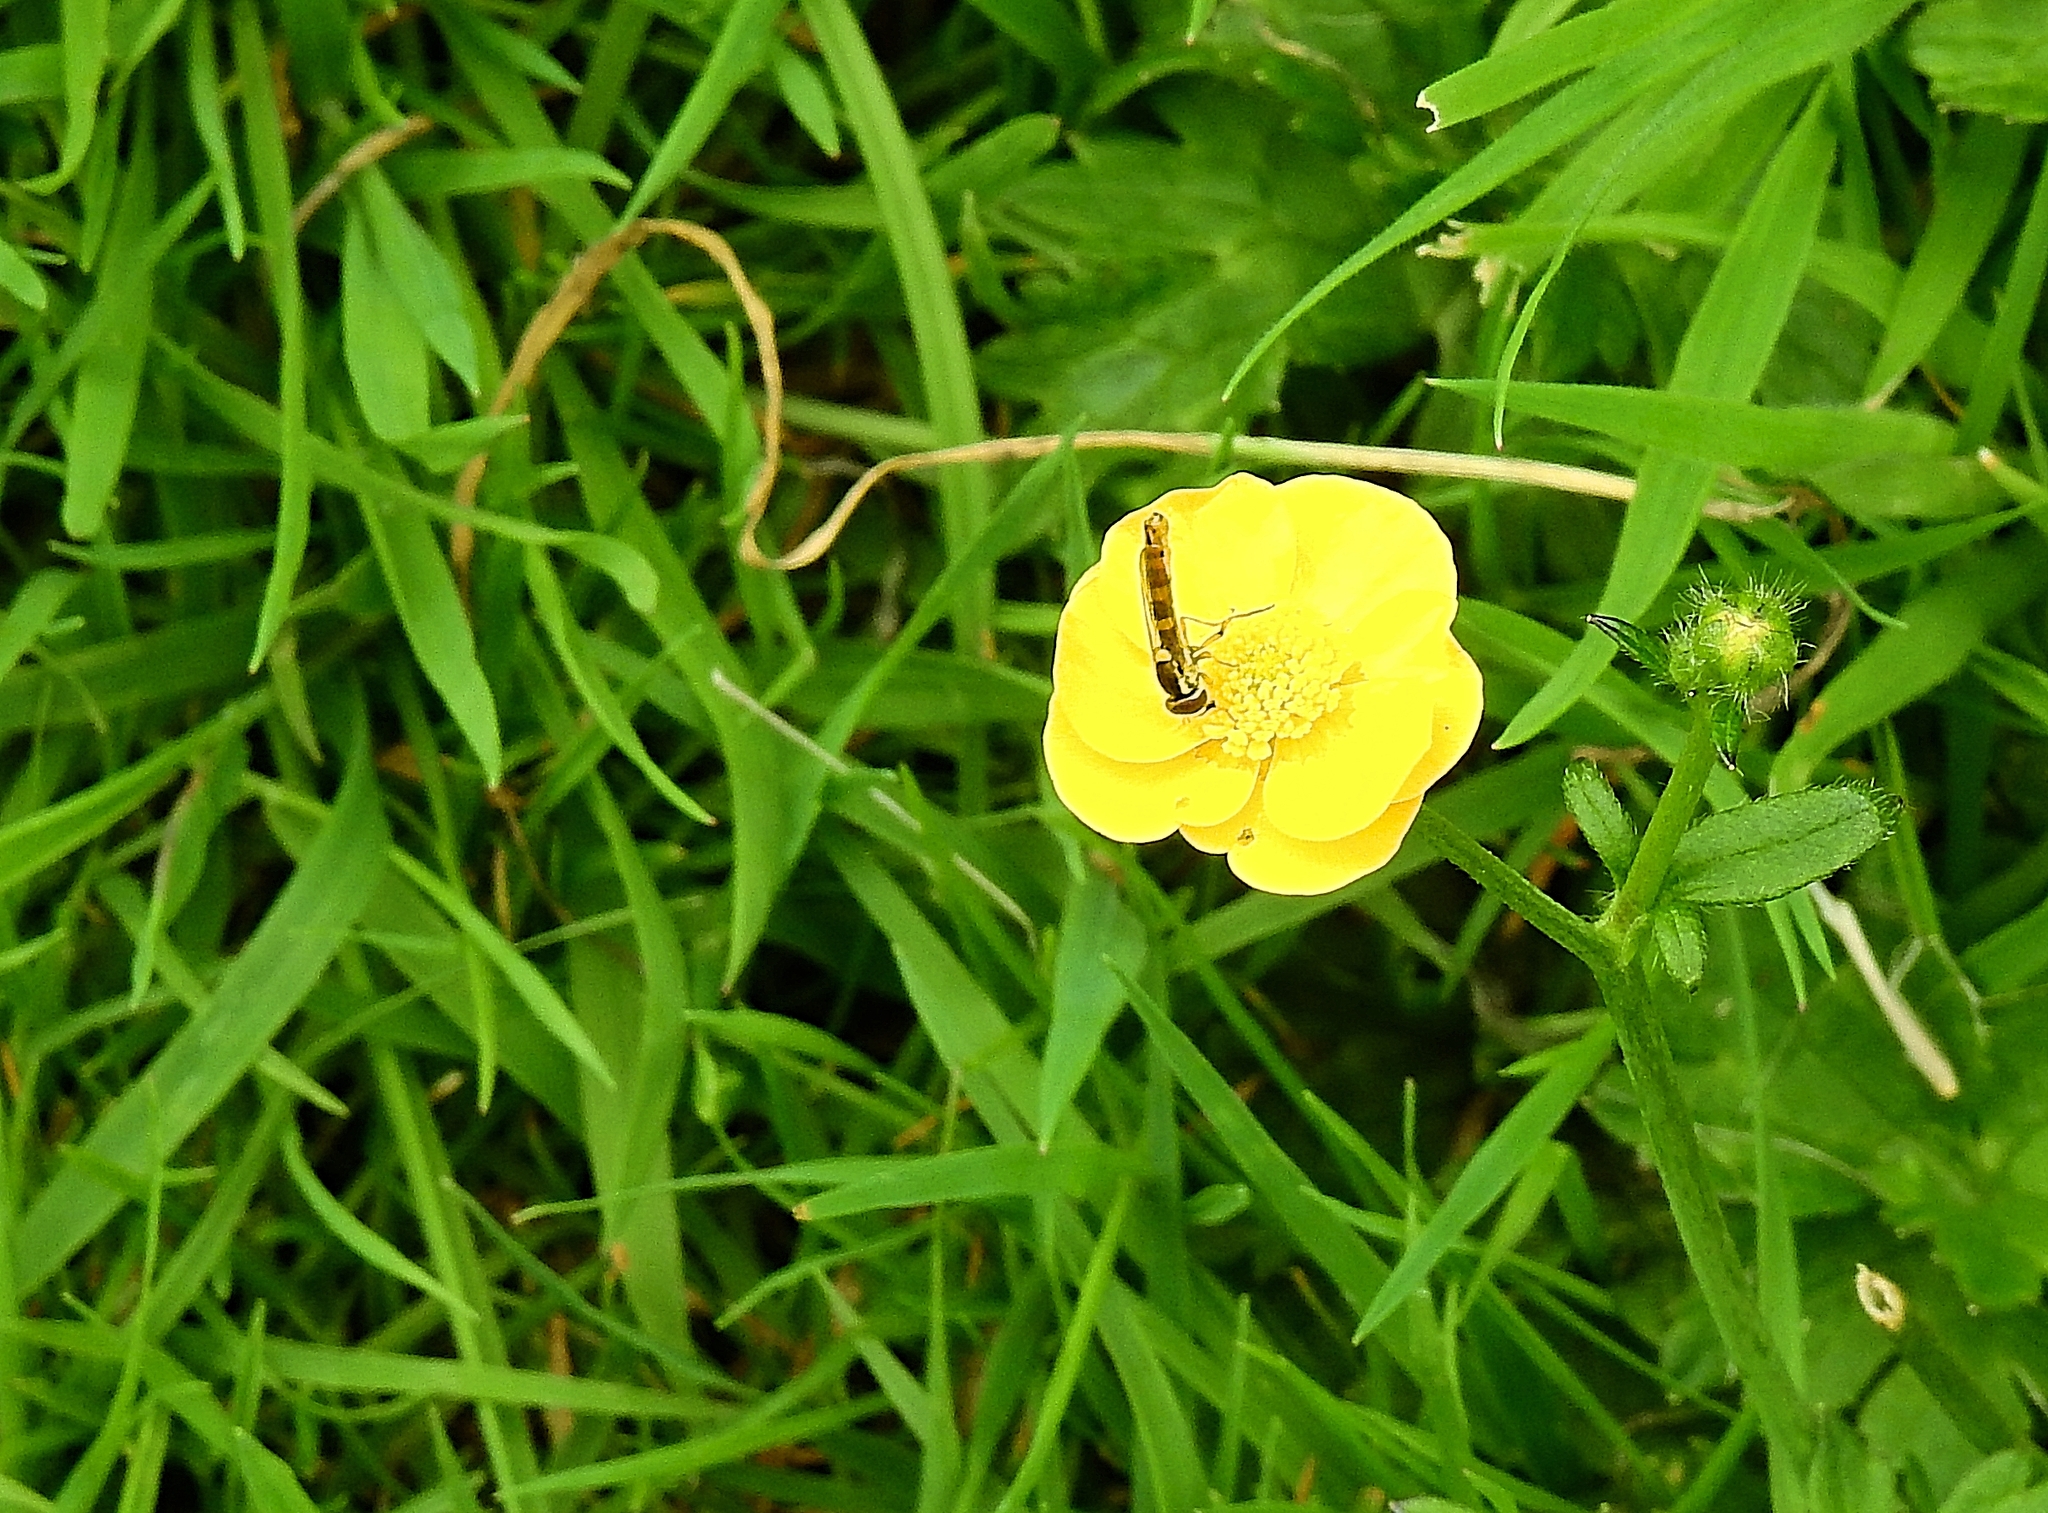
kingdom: Animalia
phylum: Arthropoda
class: Insecta
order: Diptera
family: Syrphidae
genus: Sphaerophoria
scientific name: Sphaerophoria scripta
